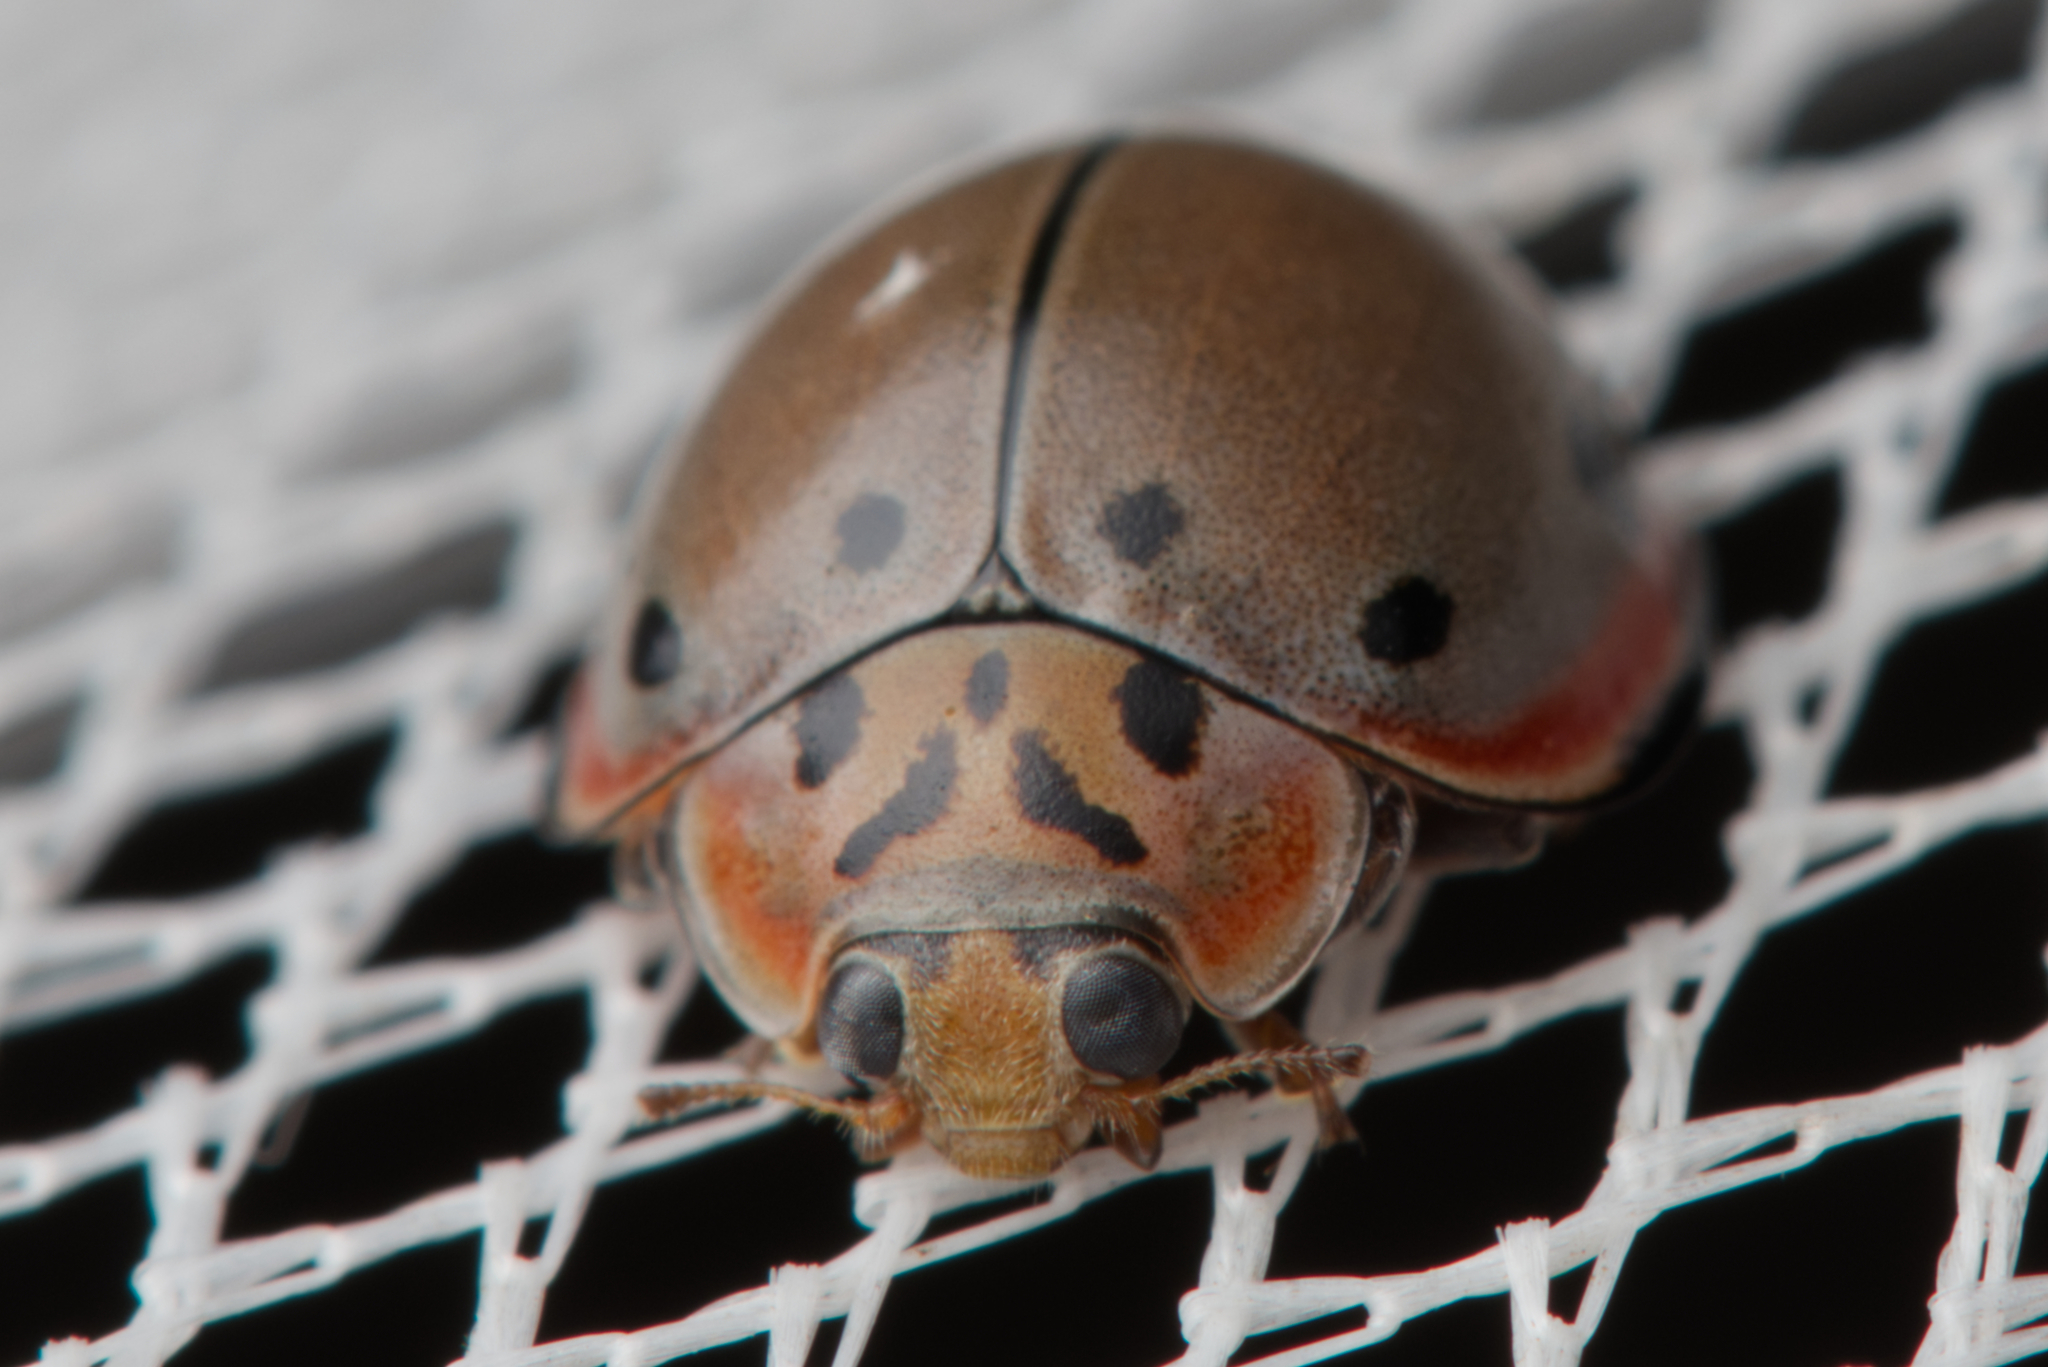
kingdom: Animalia
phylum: Arthropoda
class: Insecta
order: Coleoptera
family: Coccinellidae
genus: Archegleis
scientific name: Archegleis
